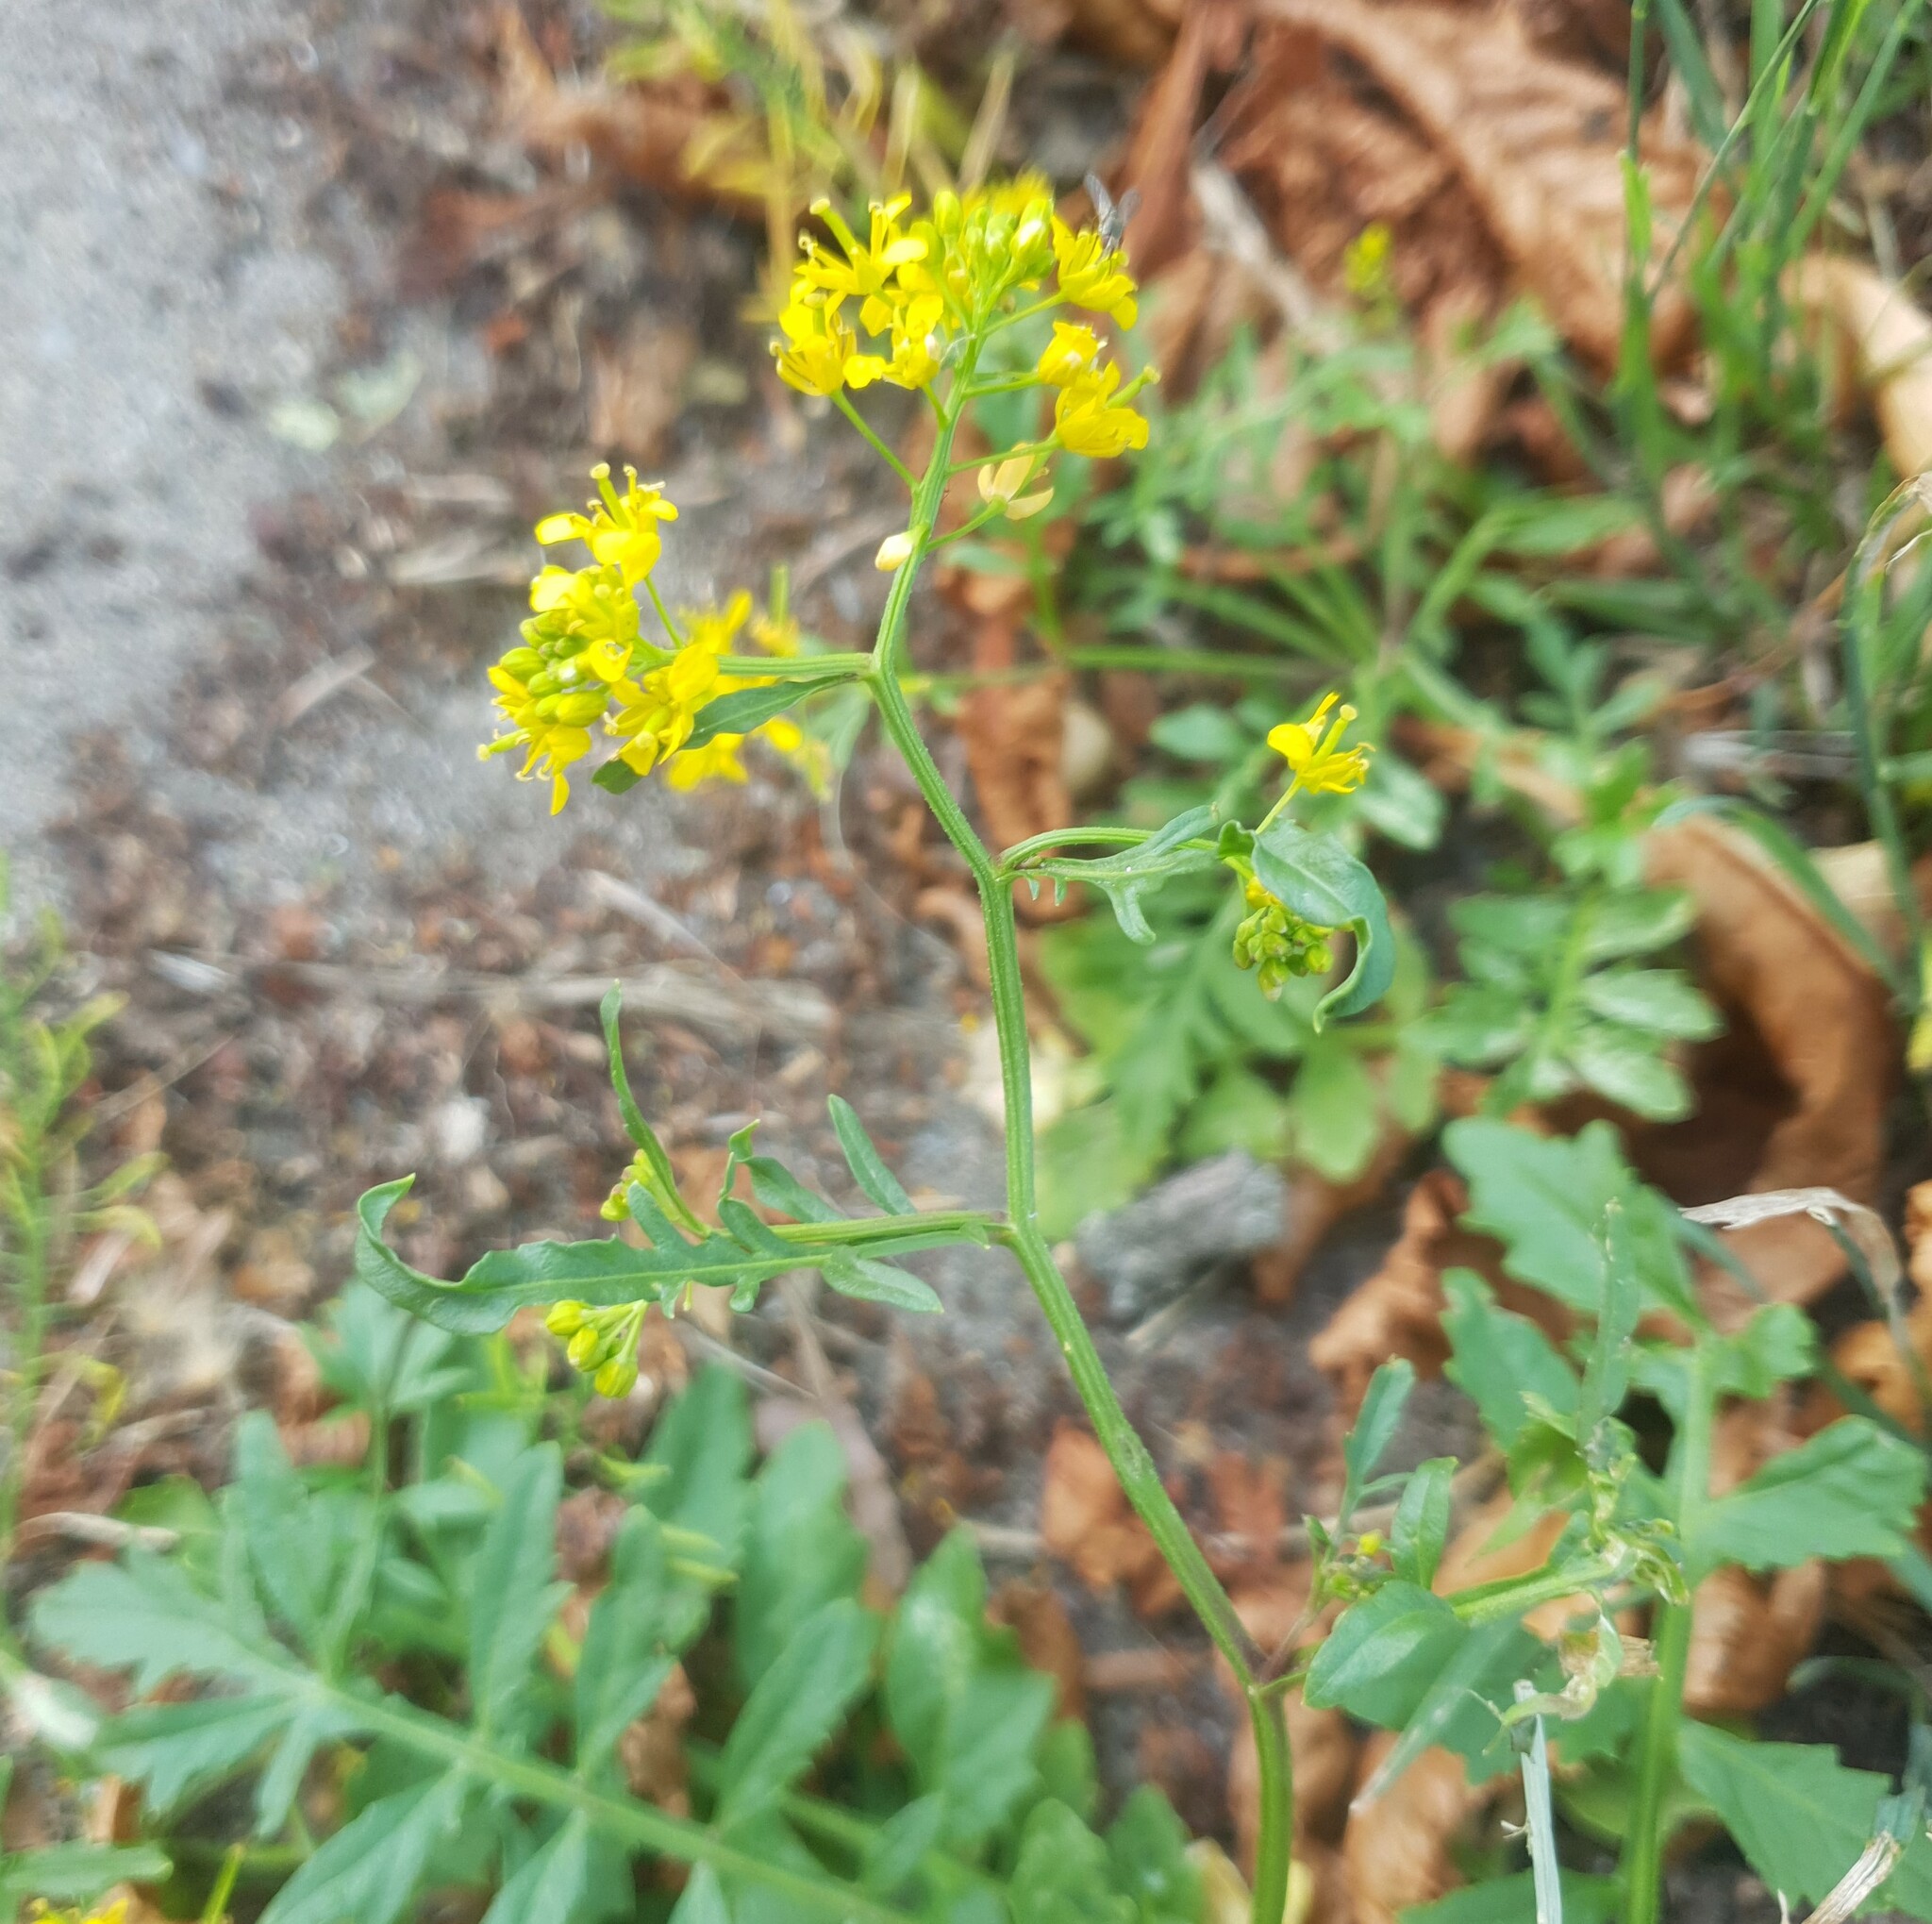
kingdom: Plantae
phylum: Tracheophyta
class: Magnoliopsida
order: Brassicales
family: Brassicaceae
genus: Rorippa
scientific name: Rorippa sylvestris
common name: Creeping yellowcress
